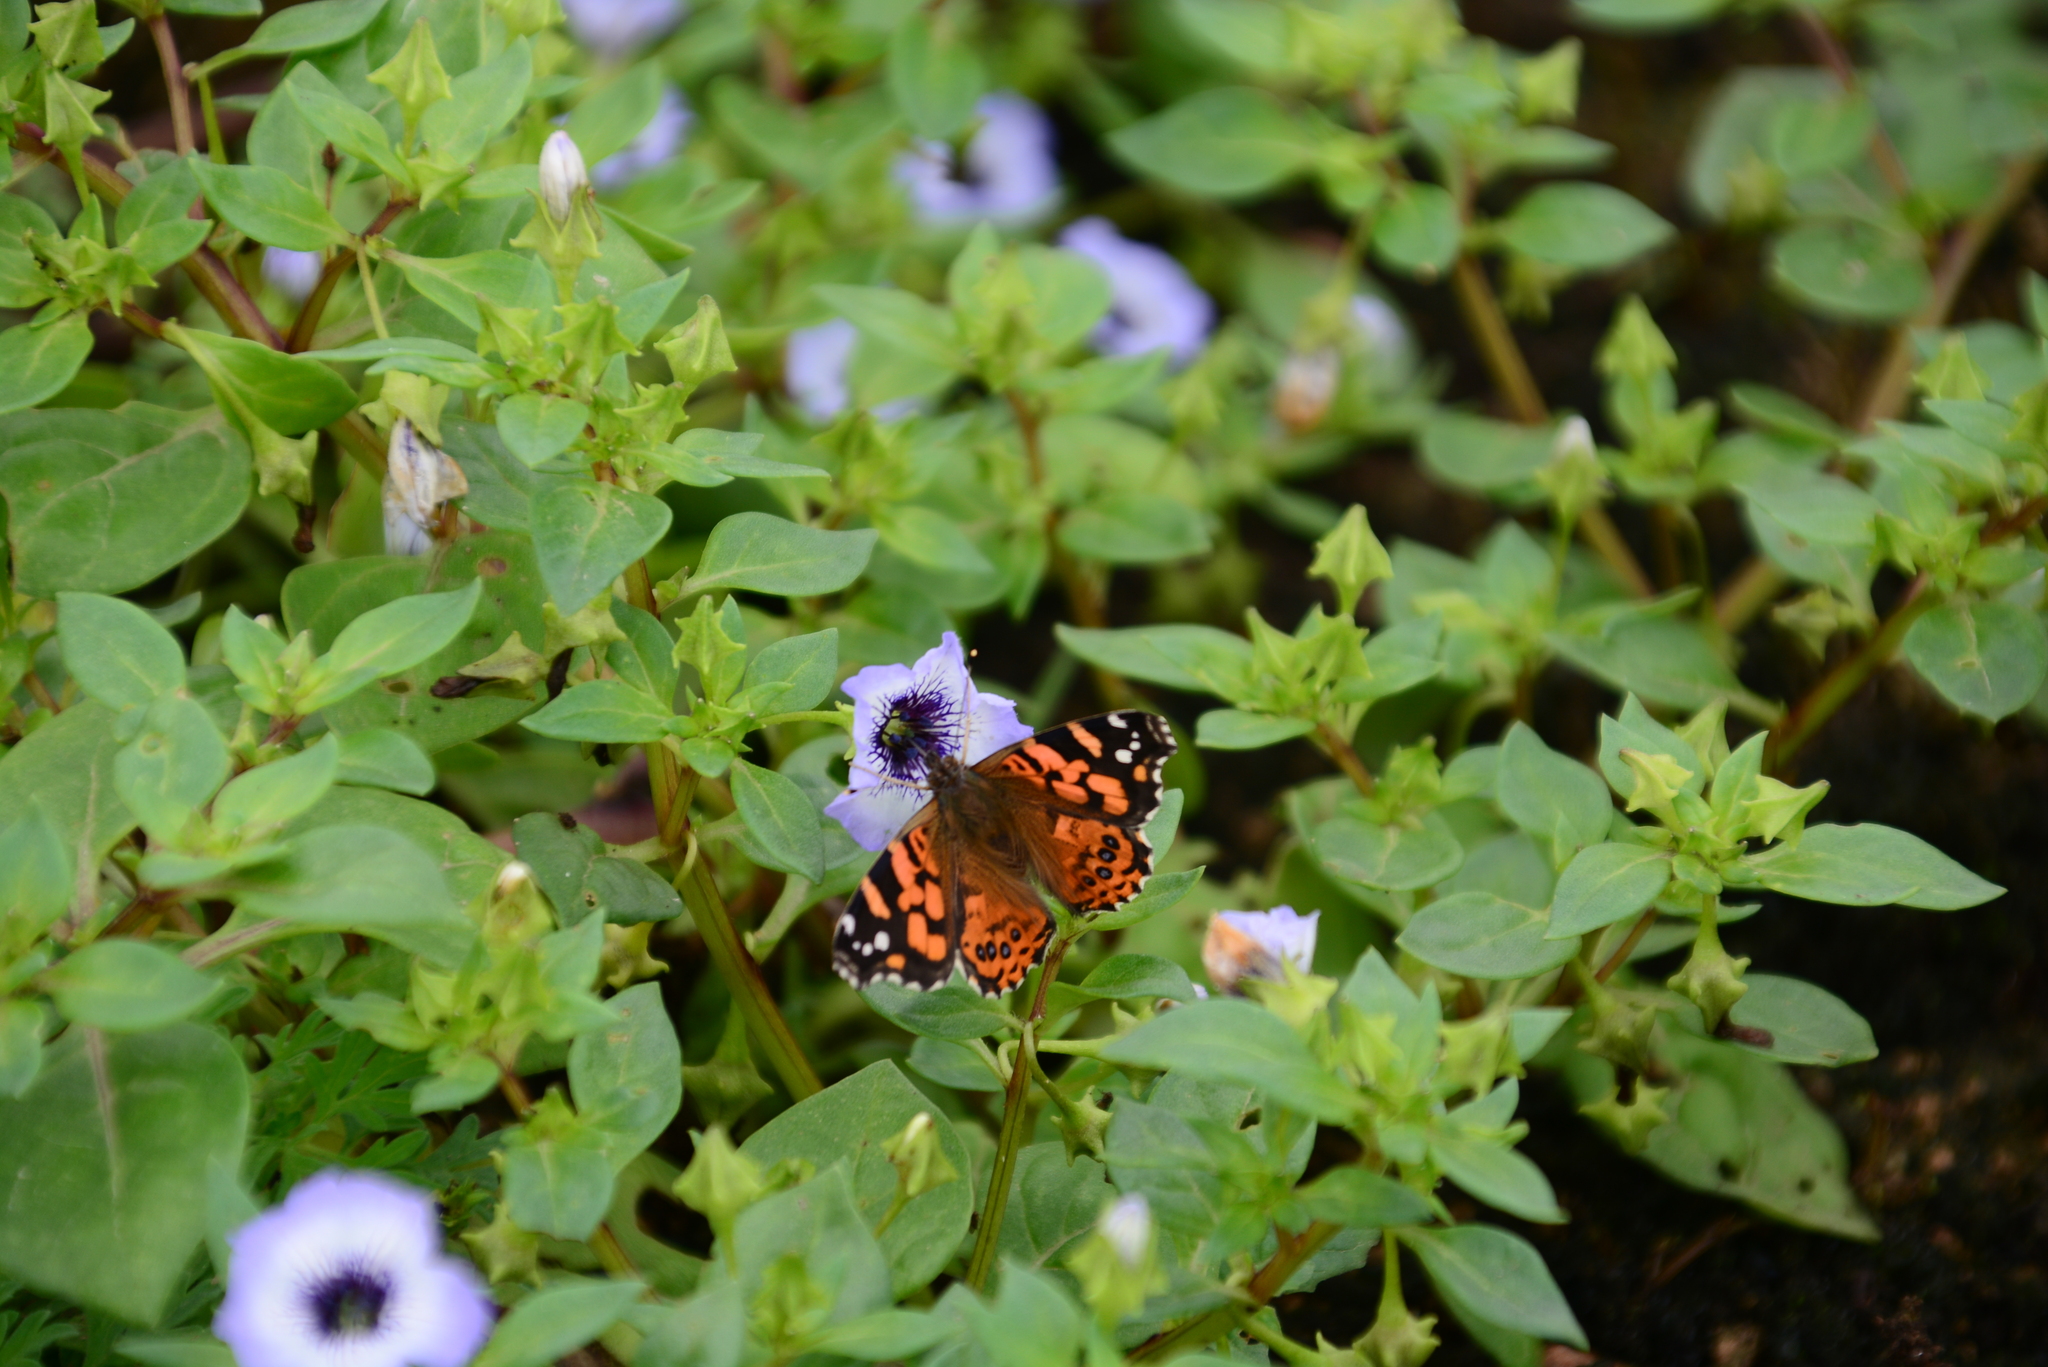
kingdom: Animalia
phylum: Arthropoda
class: Insecta
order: Lepidoptera
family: Nymphalidae
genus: Vanessa
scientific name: Vanessa carye
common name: Subtropical lady
